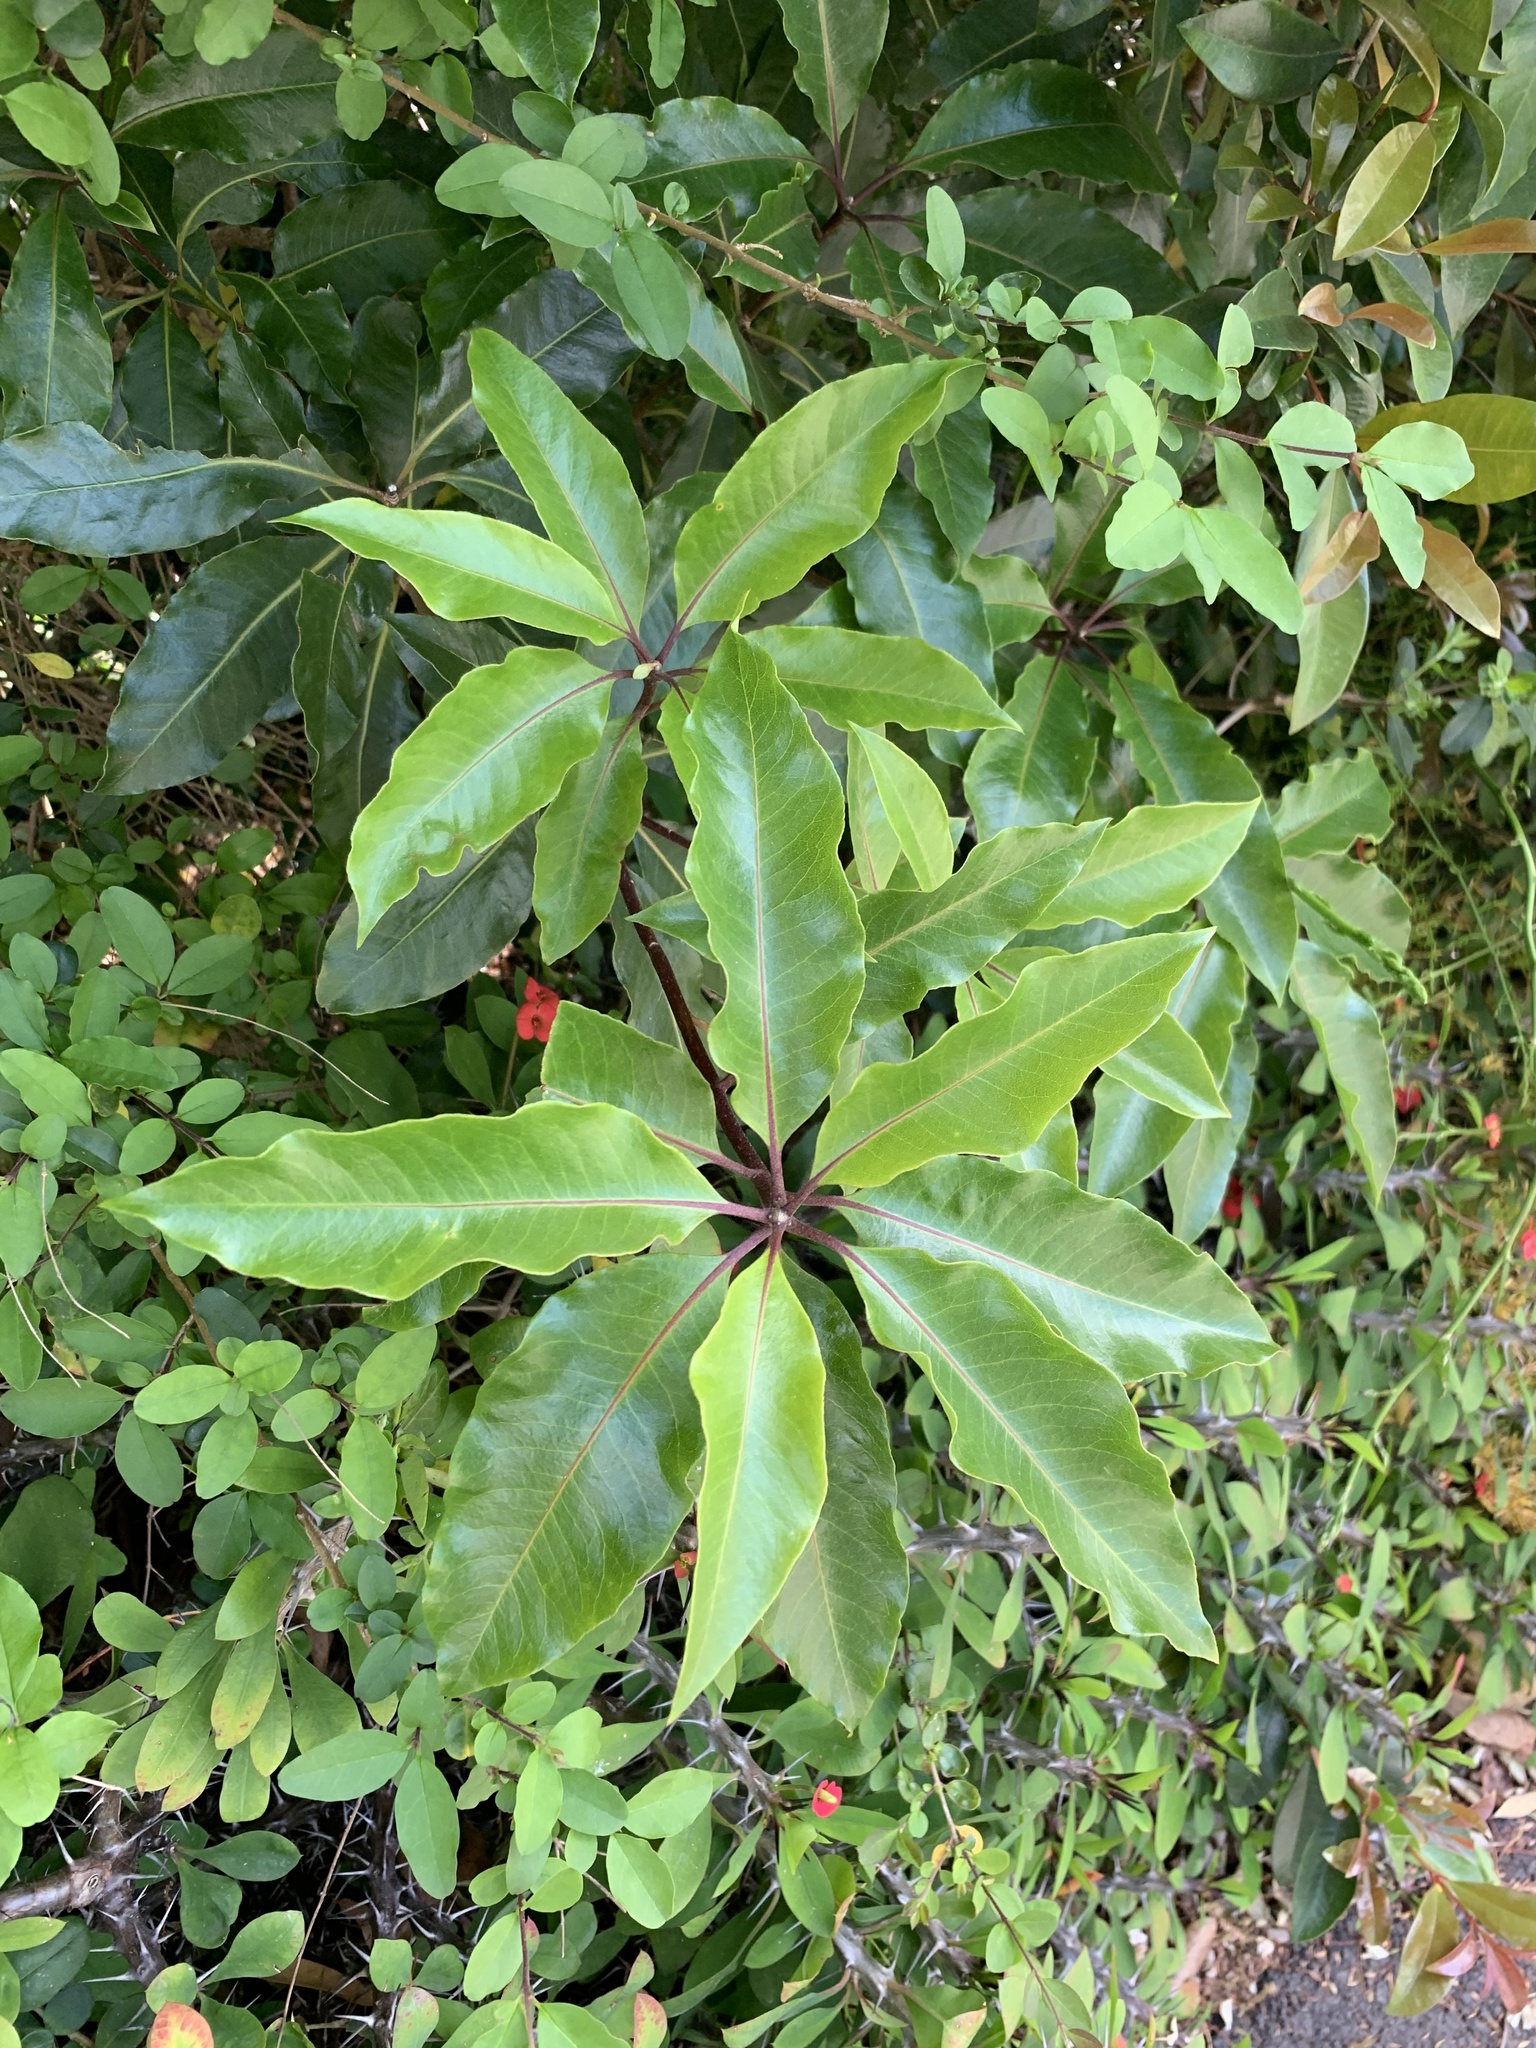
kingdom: Plantae
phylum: Tracheophyta
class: Magnoliopsida
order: Apiales
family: Pittosporaceae
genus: Pittosporum
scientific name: Pittosporum undulatum
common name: Australian cheesewood
